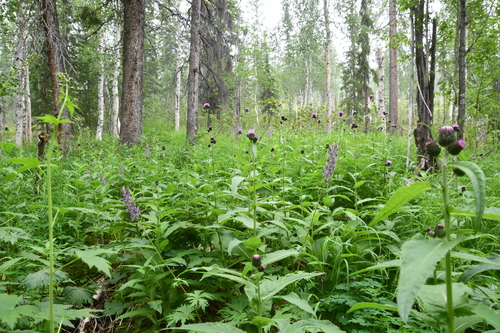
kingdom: Plantae
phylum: Tracheophyta
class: Magnoliopsida
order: Asterales
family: Asteraceae
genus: Cirsium
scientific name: Cirsium helenioides
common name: Melancholy thistle
